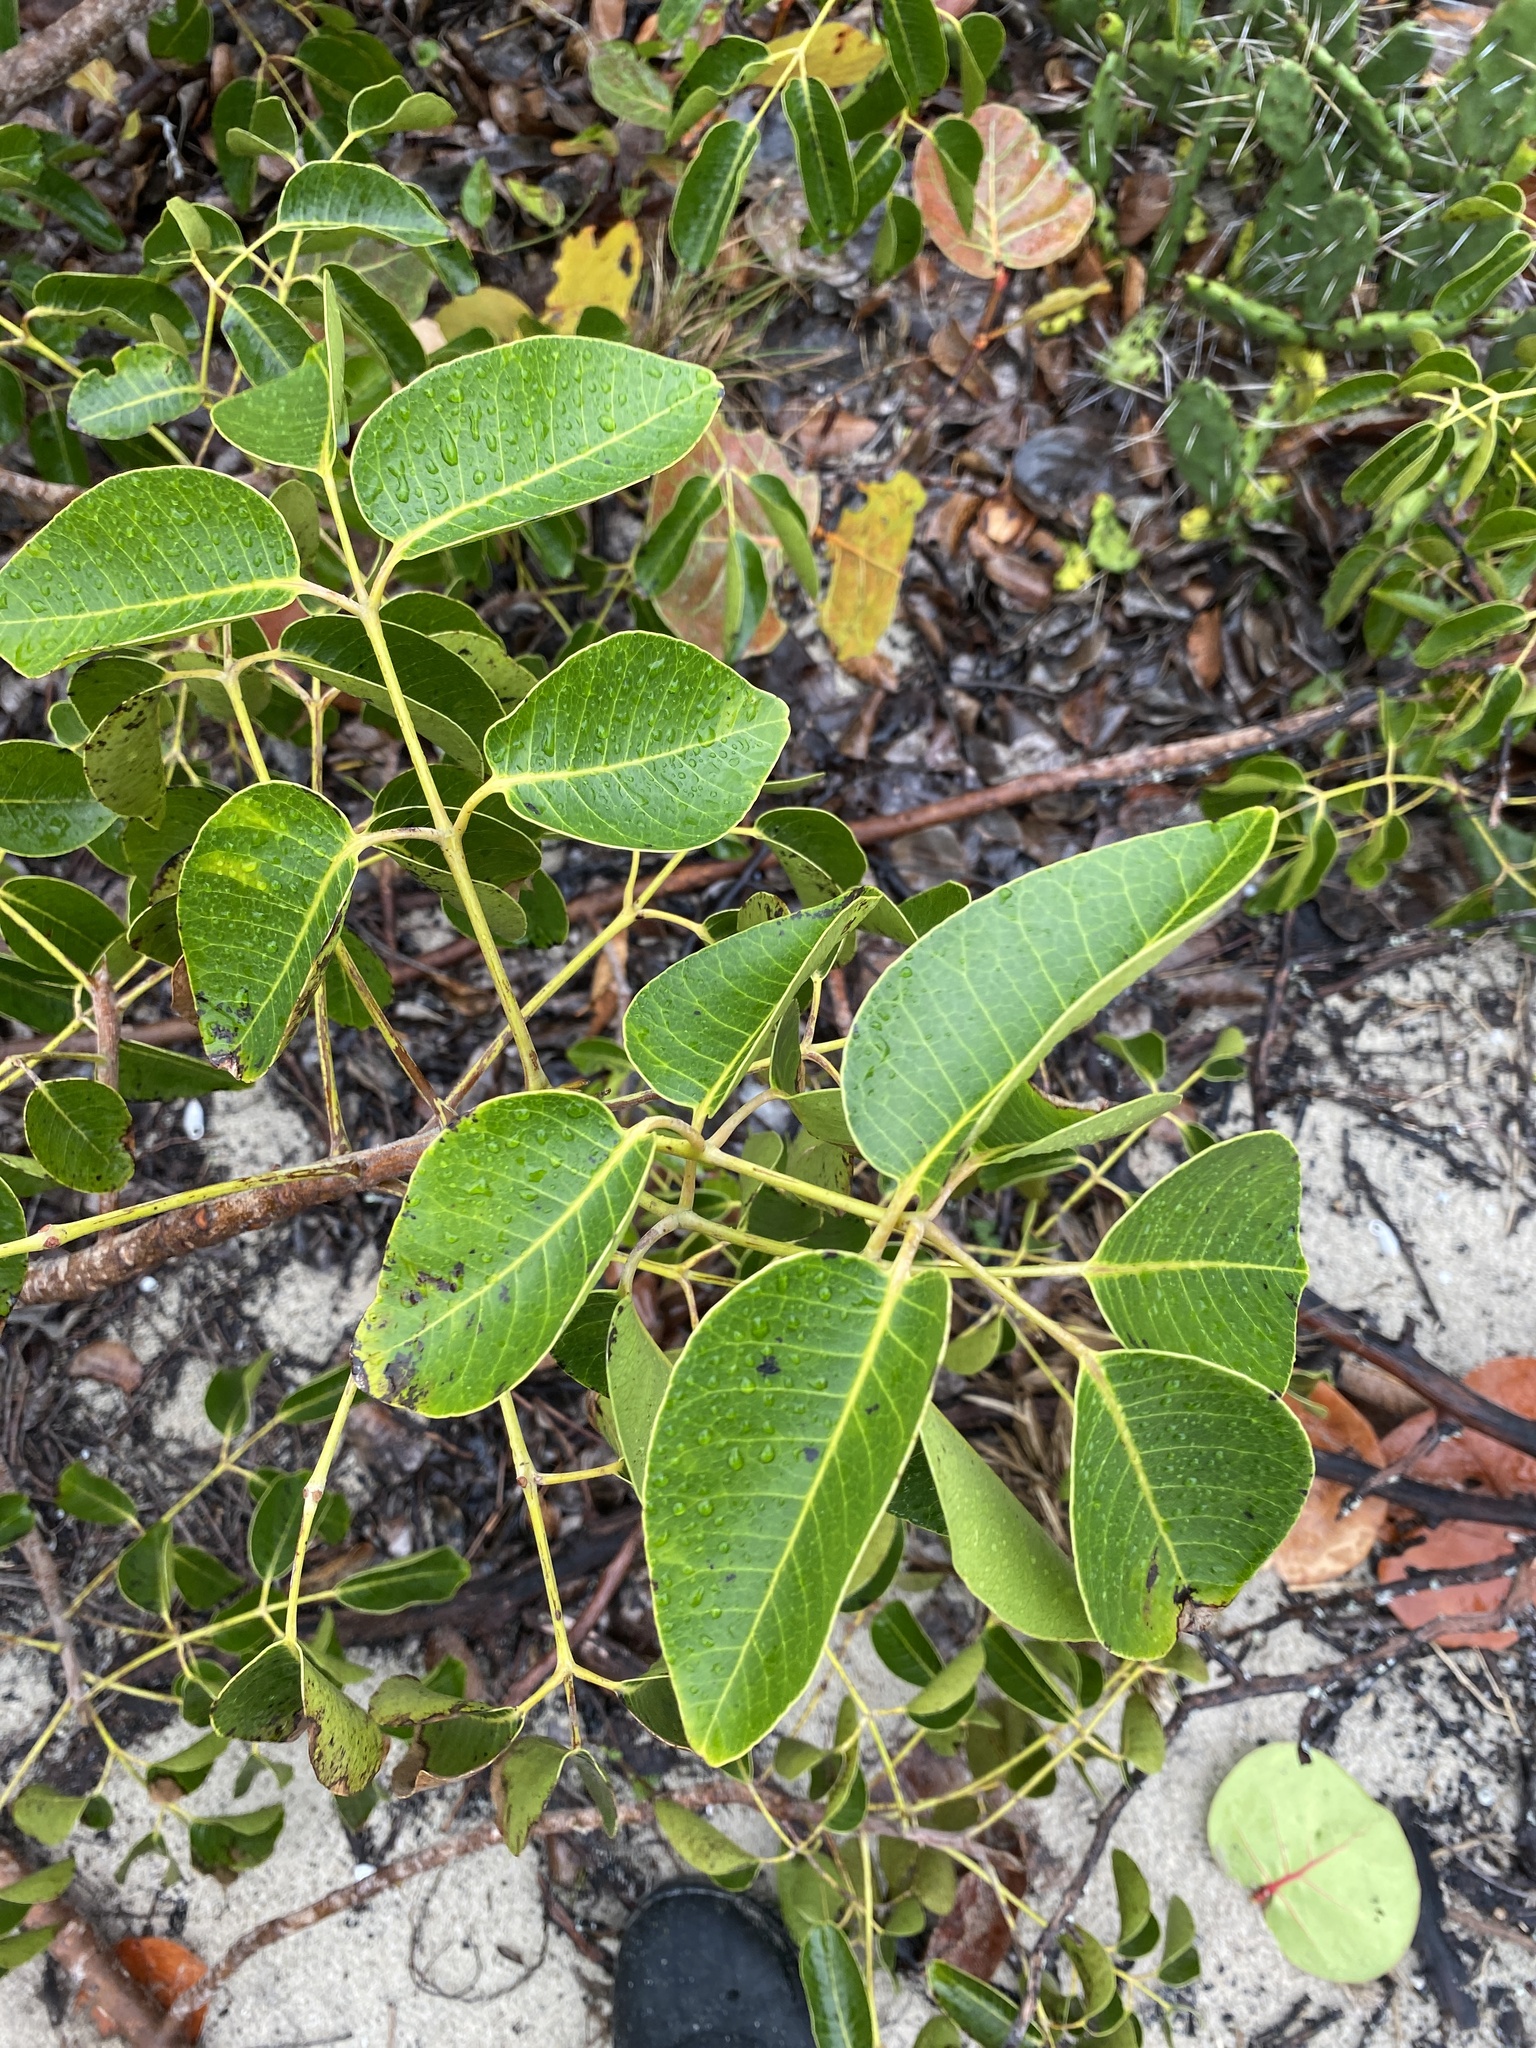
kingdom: Plantae
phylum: Tracheophyta
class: Magnoliopsida
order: Sapindales
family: Anacardiaceae
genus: Metopium
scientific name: Metopium toxiferum
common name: Florida poisontree
